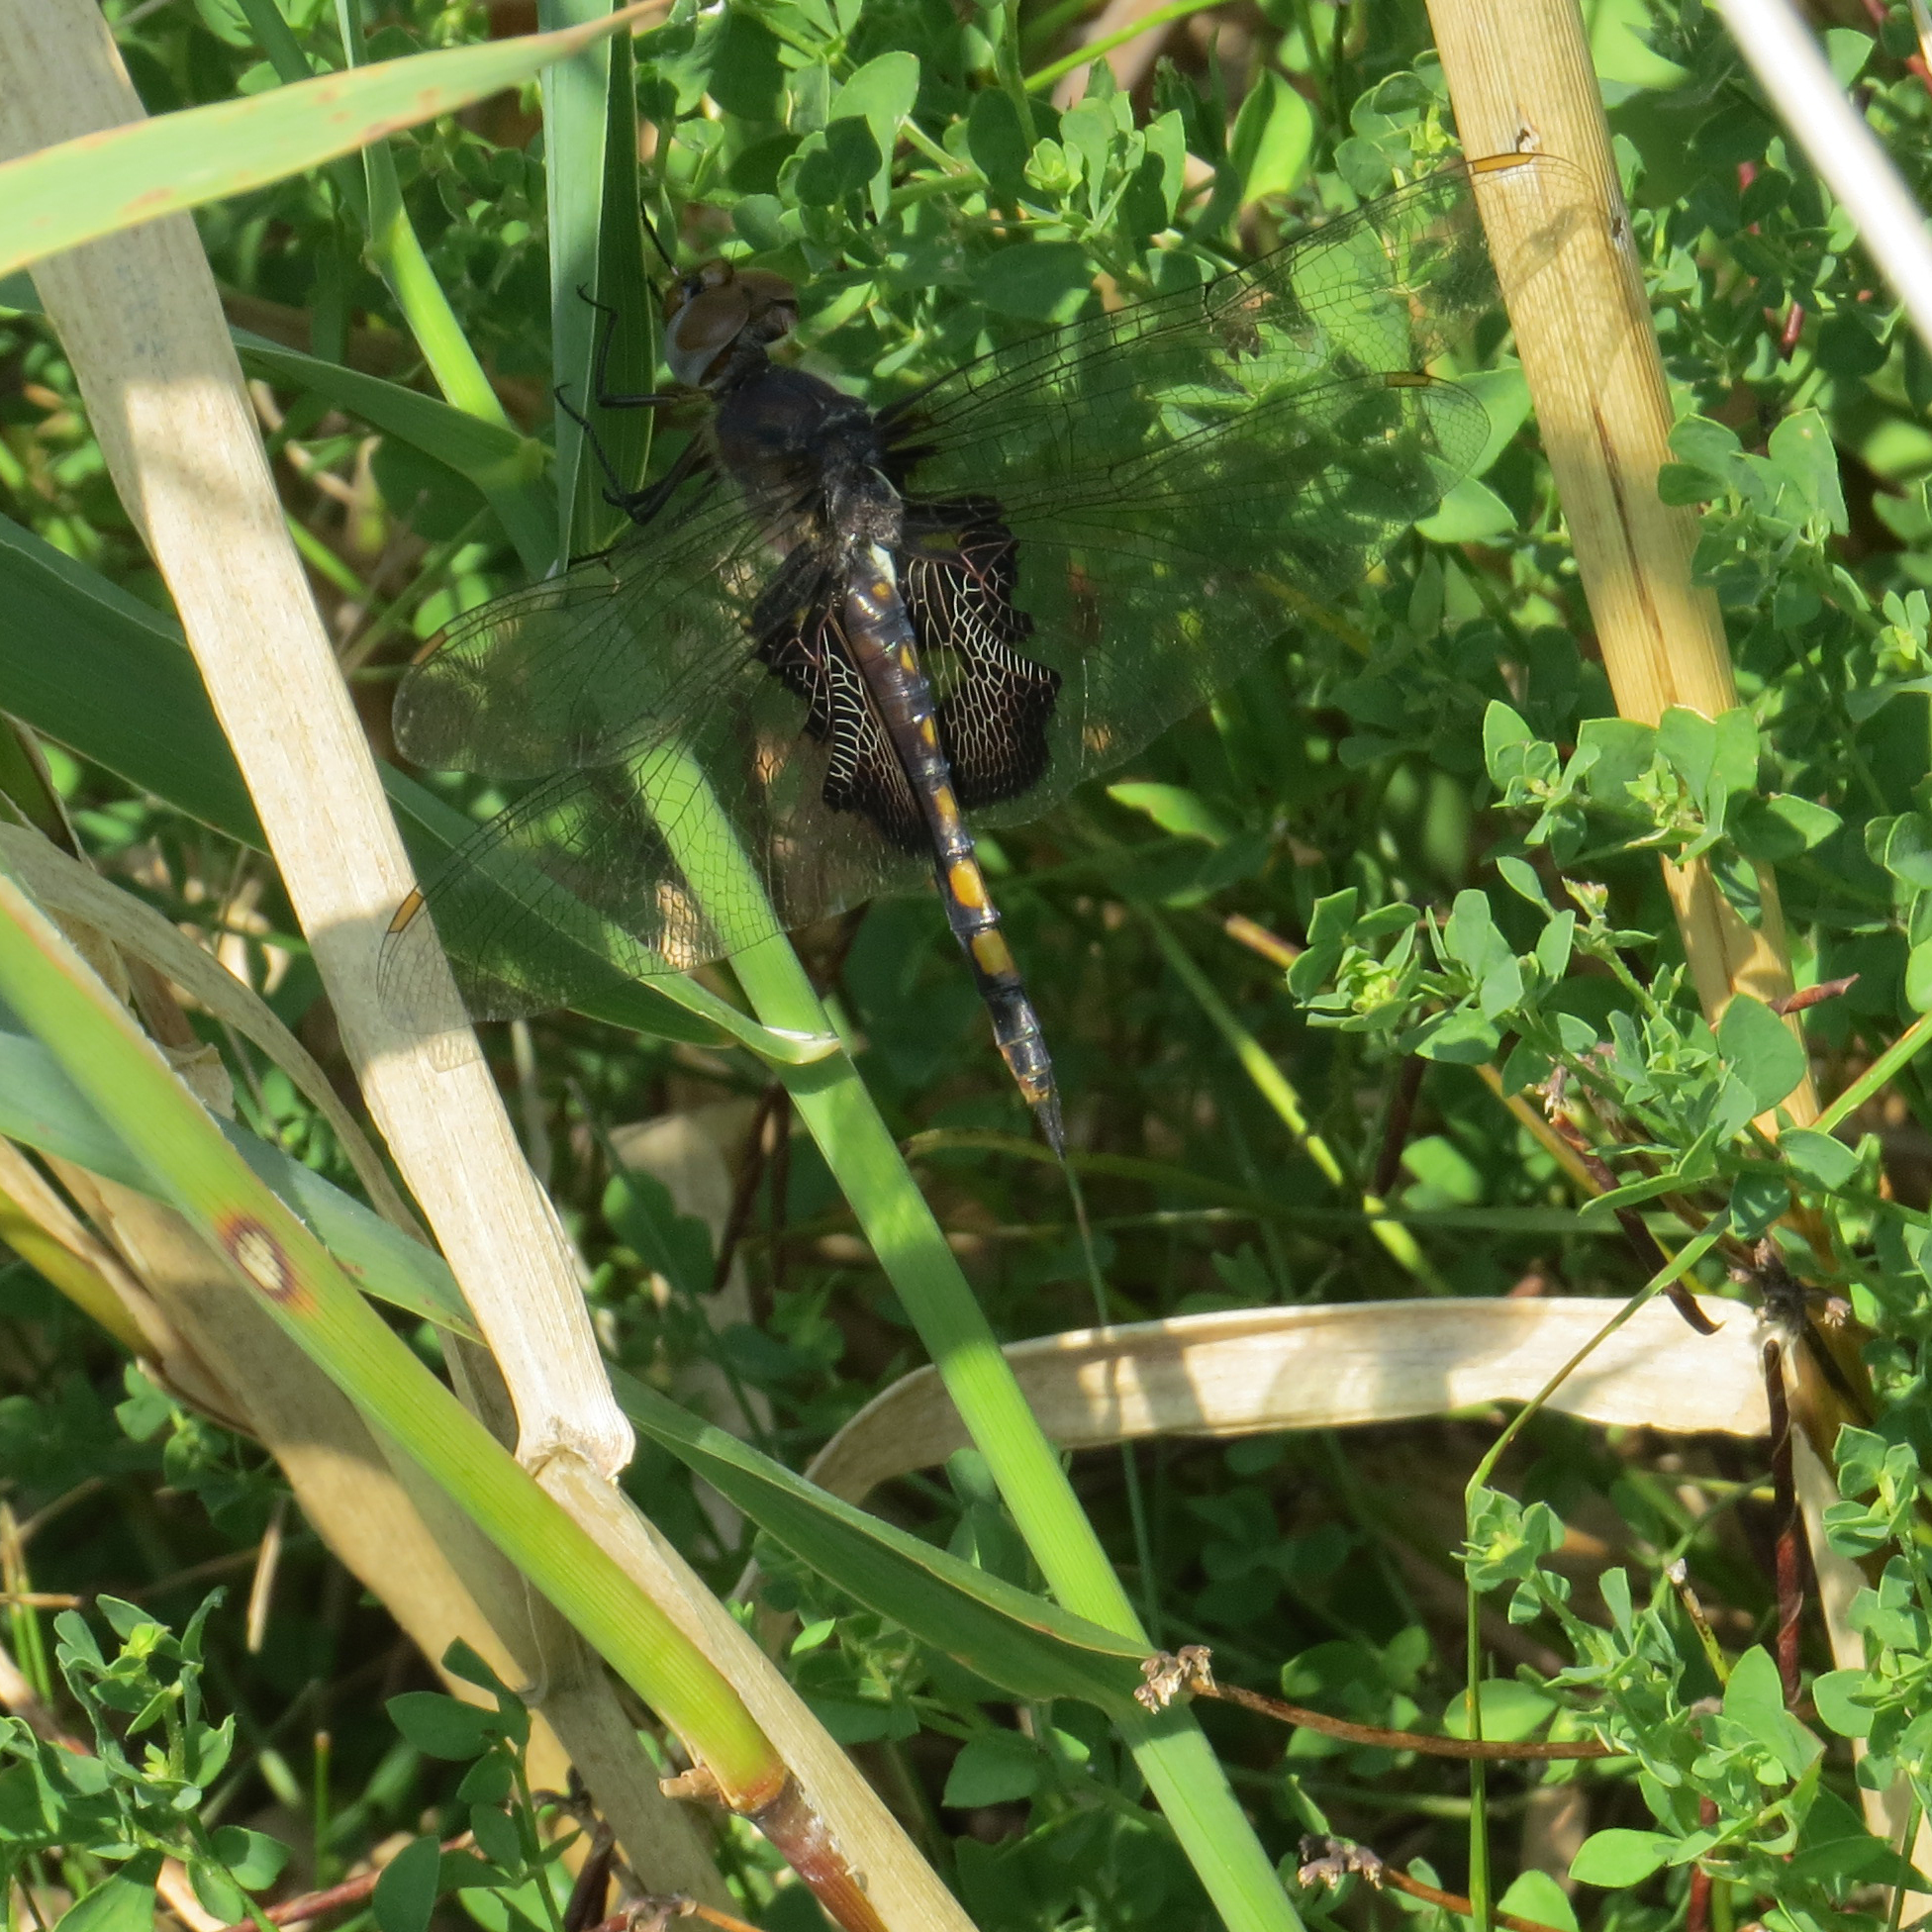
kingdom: Animalia
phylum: Arthropoda
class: Insecta
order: Odonata
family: Libellulidae
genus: Tramea
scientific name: Tramea lacerata
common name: Black saddlebags
